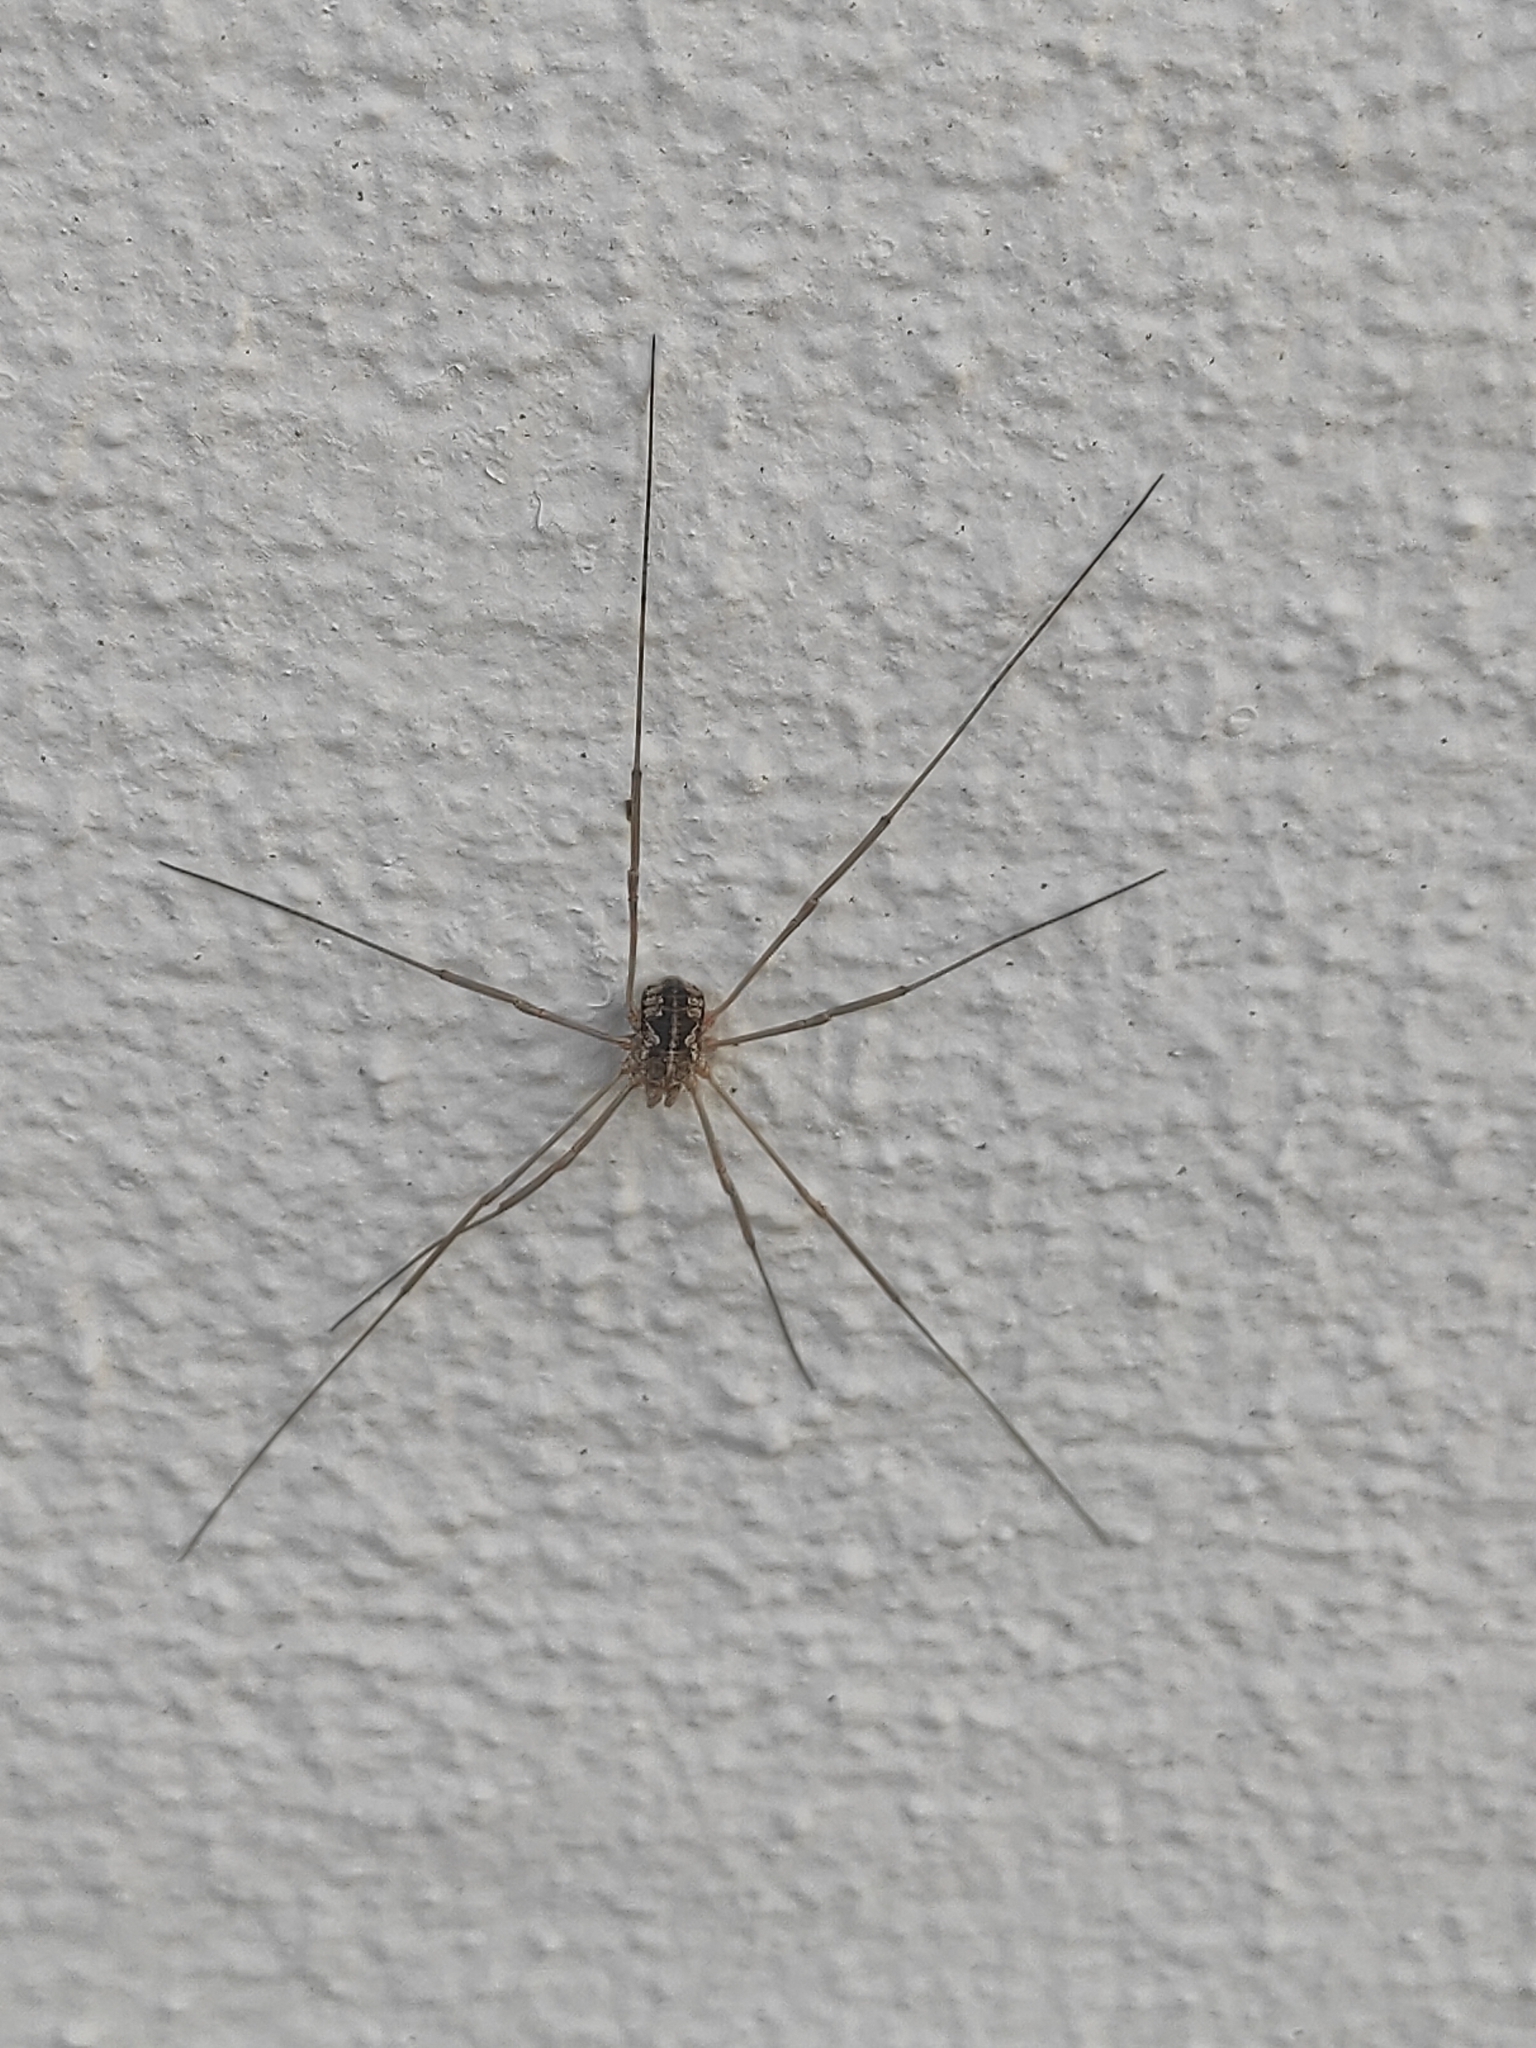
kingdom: Animalia
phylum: Arthropoda
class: Arachnida
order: Opiliones
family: Phalangiidae
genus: Phalangium
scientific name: Phalangium opilio
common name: Daddy longleg
